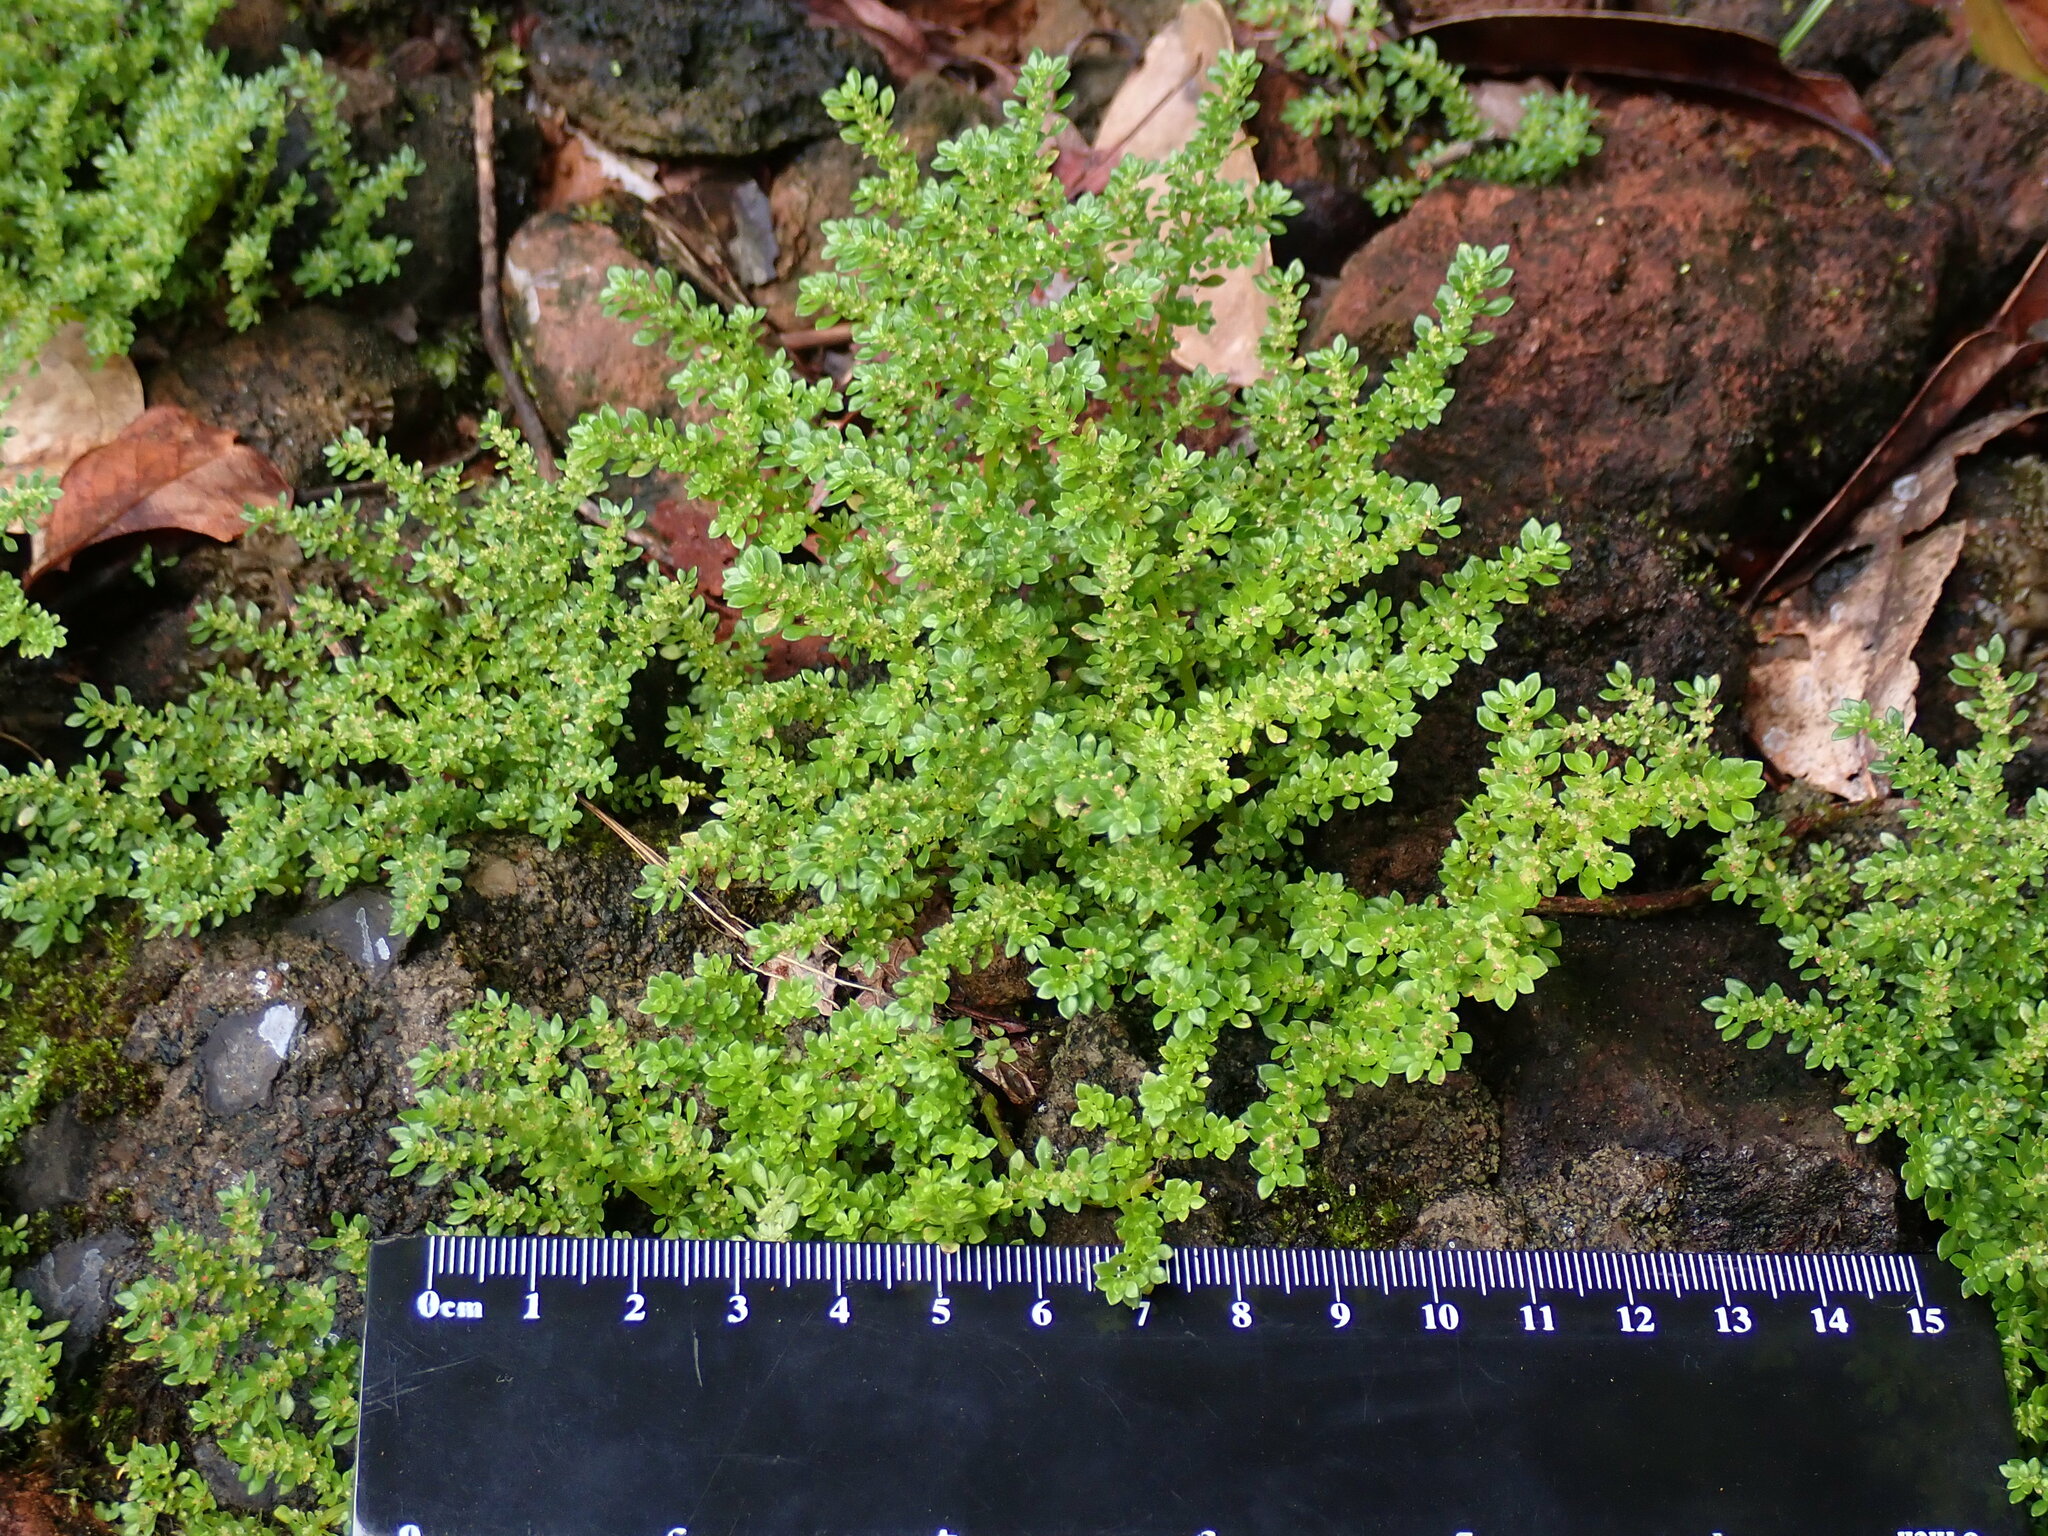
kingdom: Plantae
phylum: Tracheophyta
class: Magnoliopsida
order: Rosales
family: Urticaceae
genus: Pilea
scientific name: Pilea microphylla
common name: Artillery-plant
